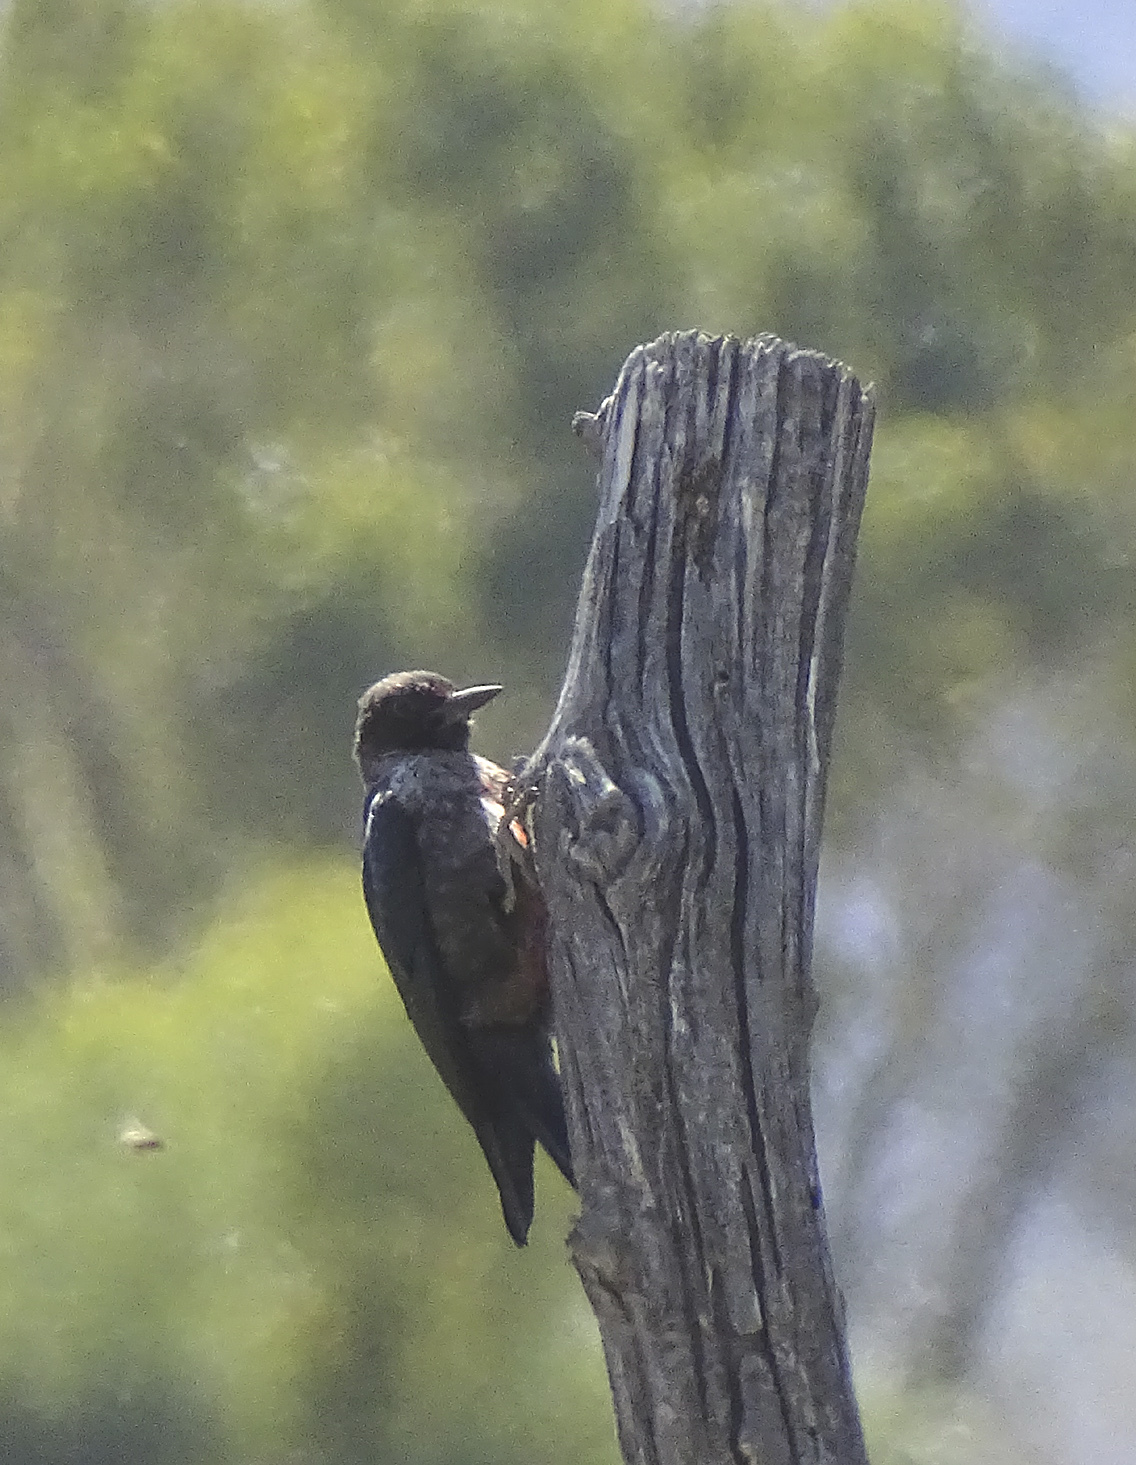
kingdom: Animalia
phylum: Chordata
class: Aves
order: Piciformes
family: Picidae
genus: Melanerpes
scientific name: Melanerpes lewis
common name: Lewis's woodpecker
